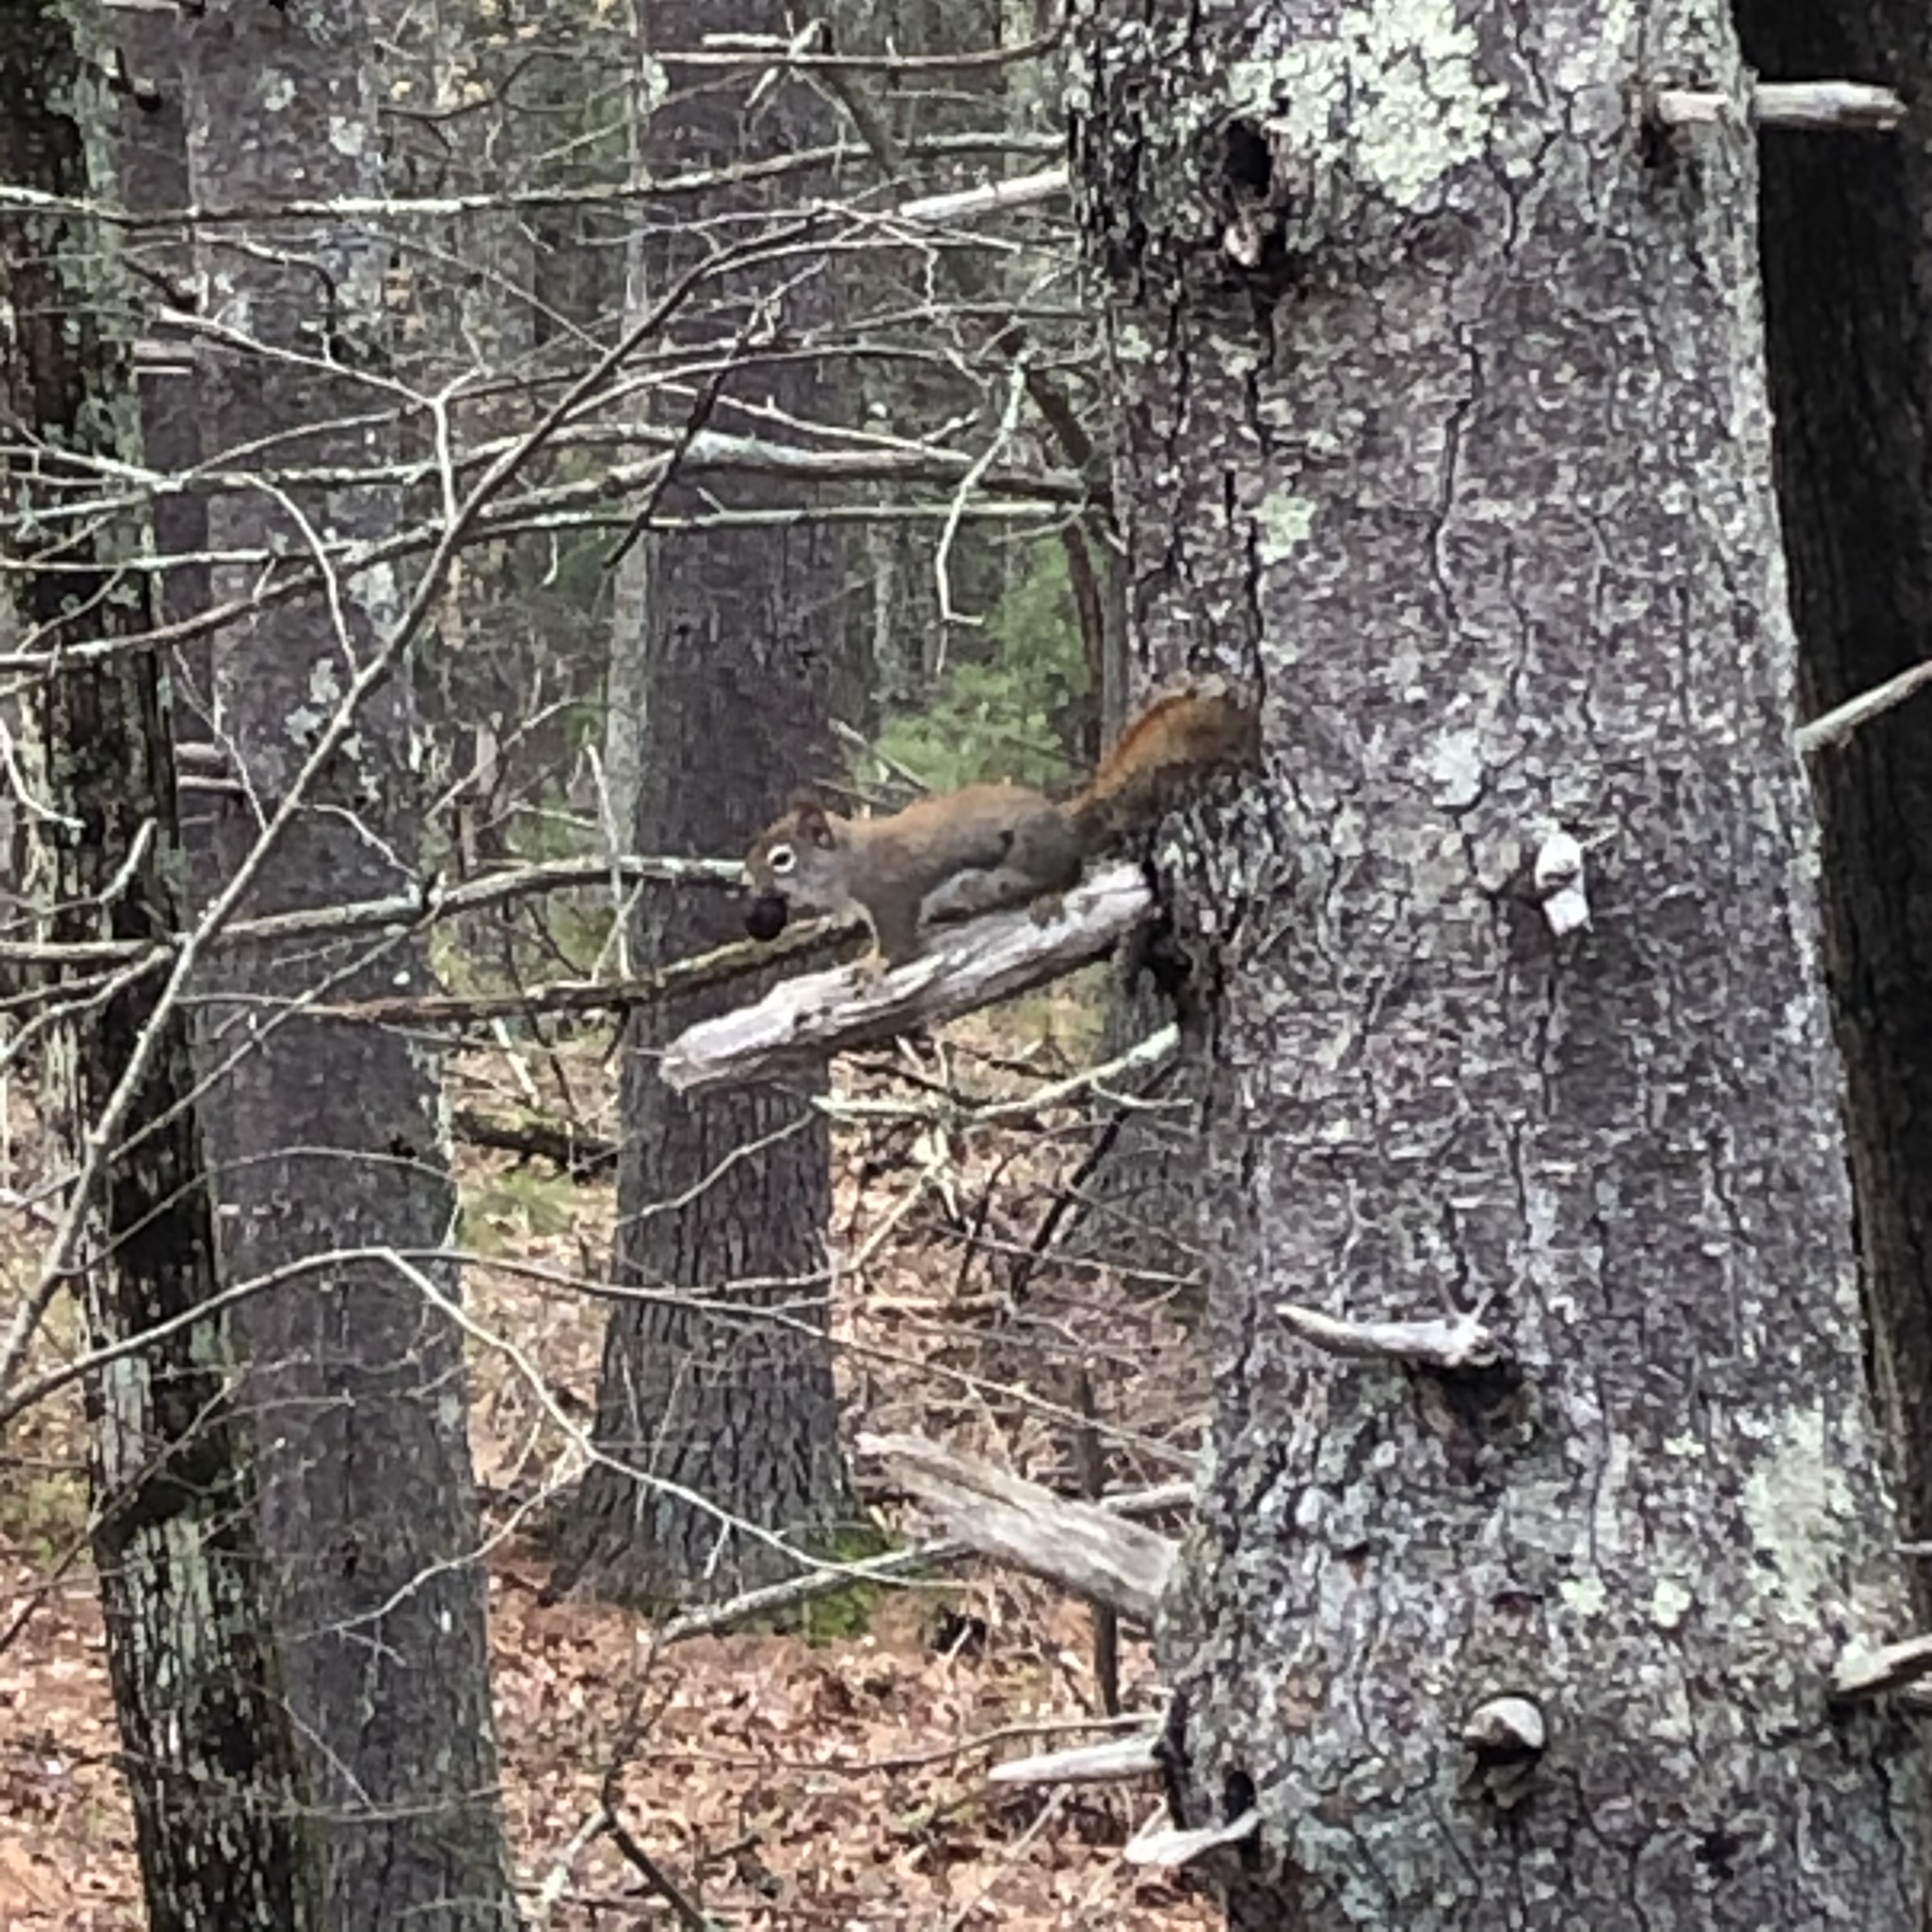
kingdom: Animalia
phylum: Chordata
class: Mammalia
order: Rodentia
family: Sciuridae
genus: Tamiasciurus
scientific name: Tamiasciurus hudsonicus
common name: Red squirrel
